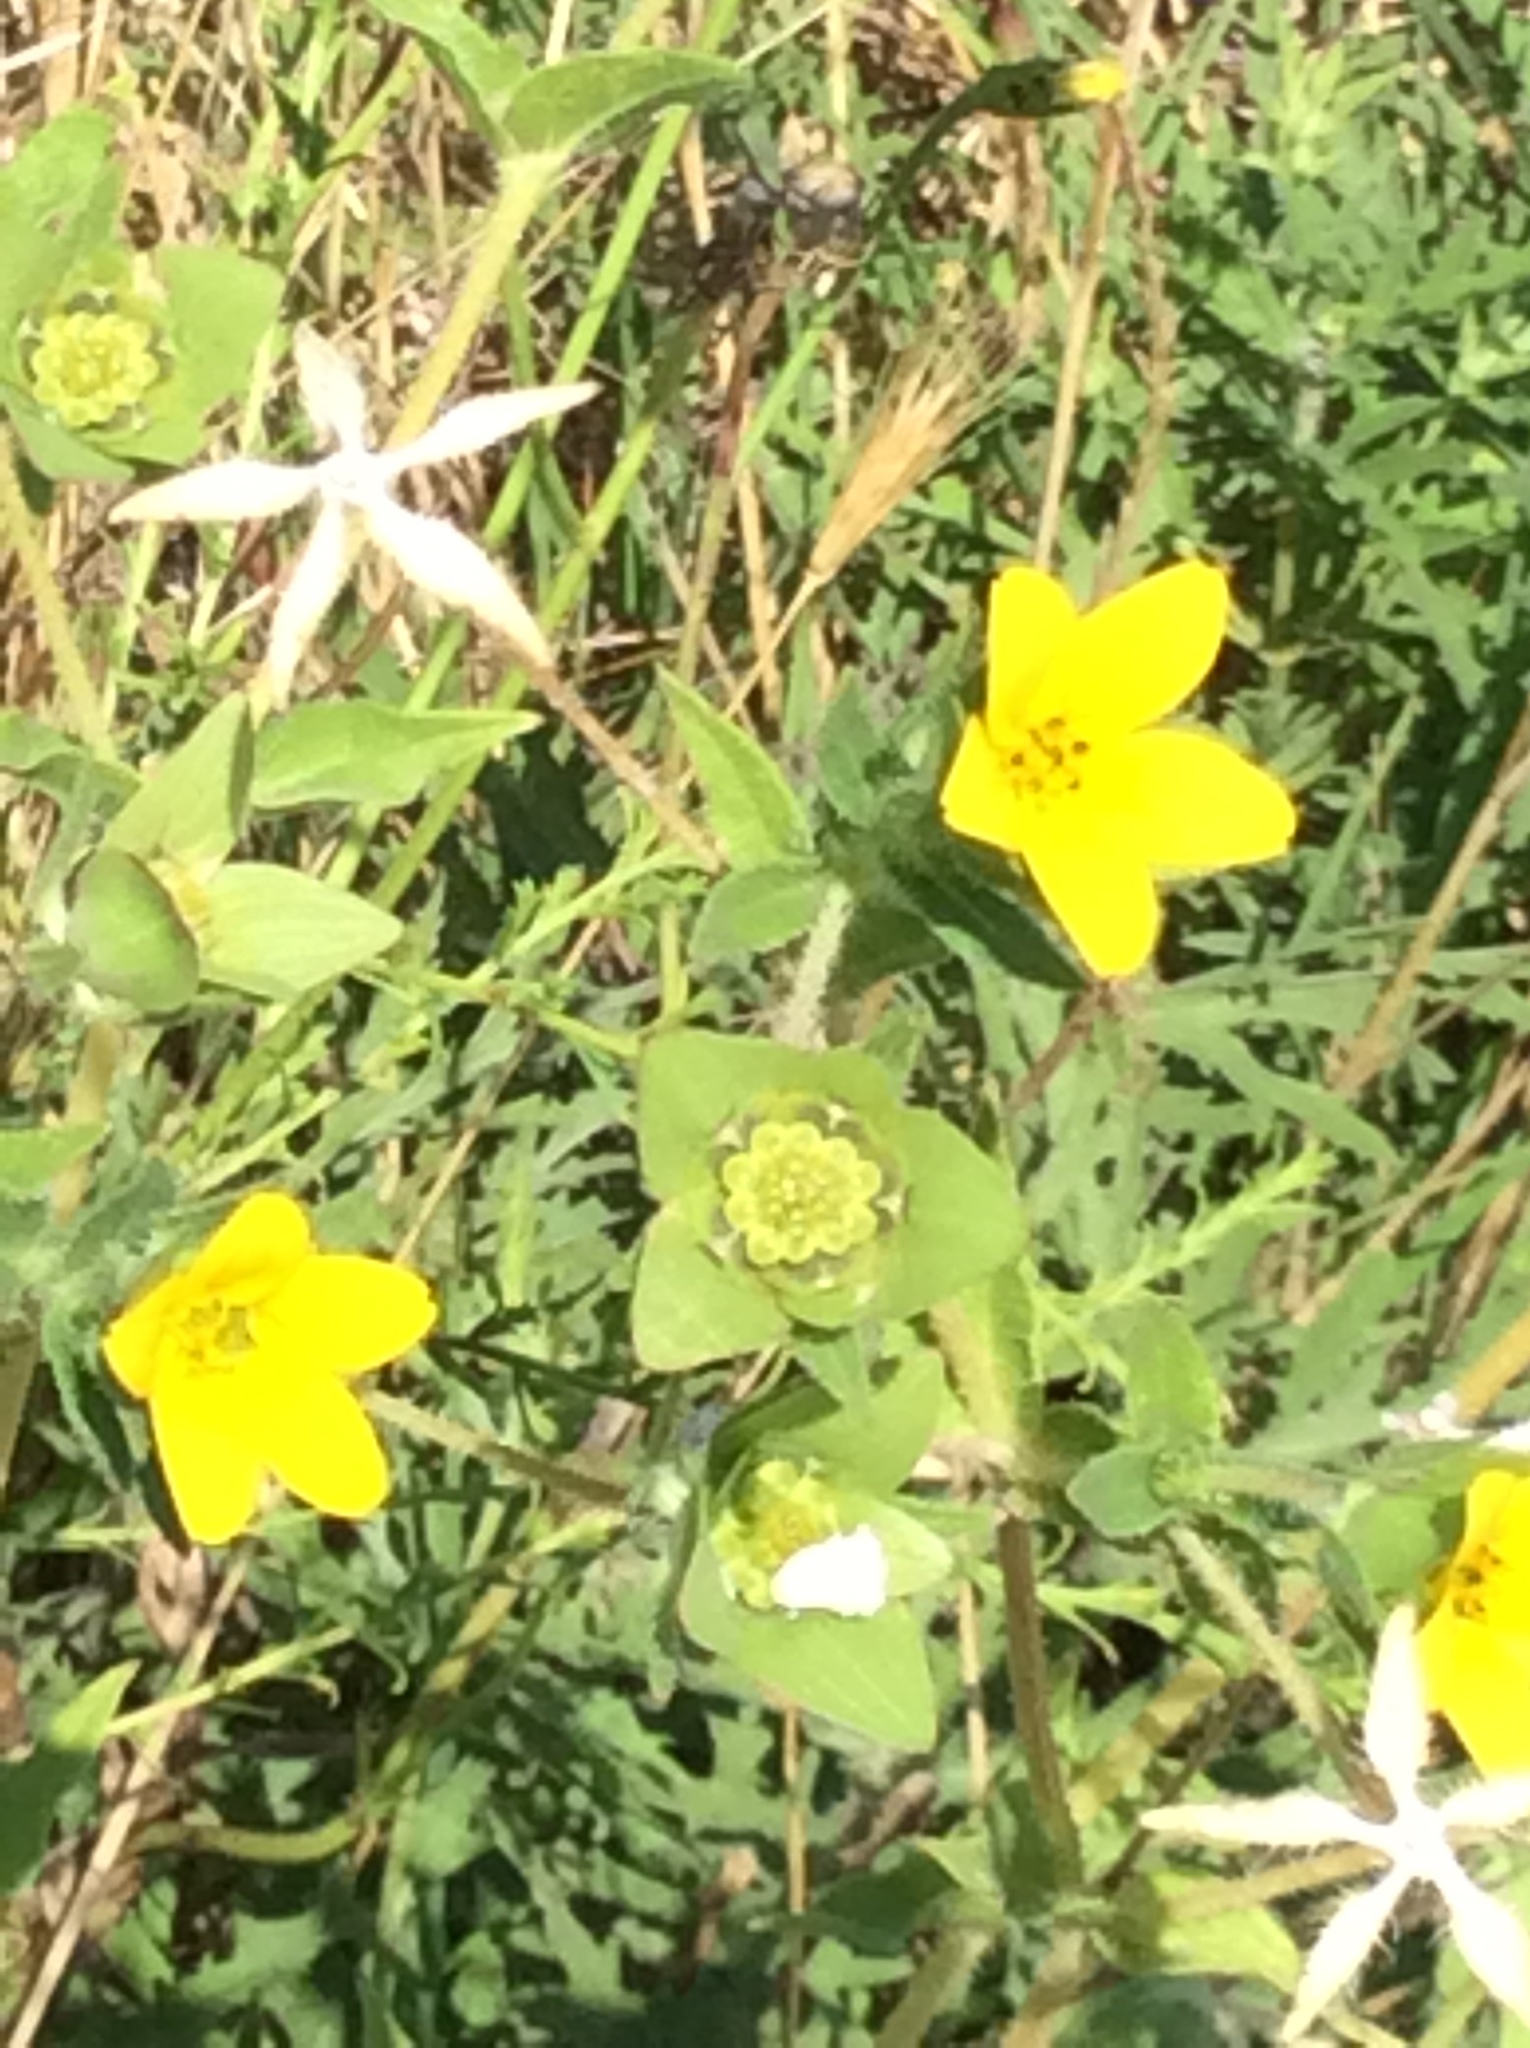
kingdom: Plantae
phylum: Tracheophyta
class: Magnoliopsida
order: Asterales
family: Asteraceae
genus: Lindheimera
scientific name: Lindheimera texana
